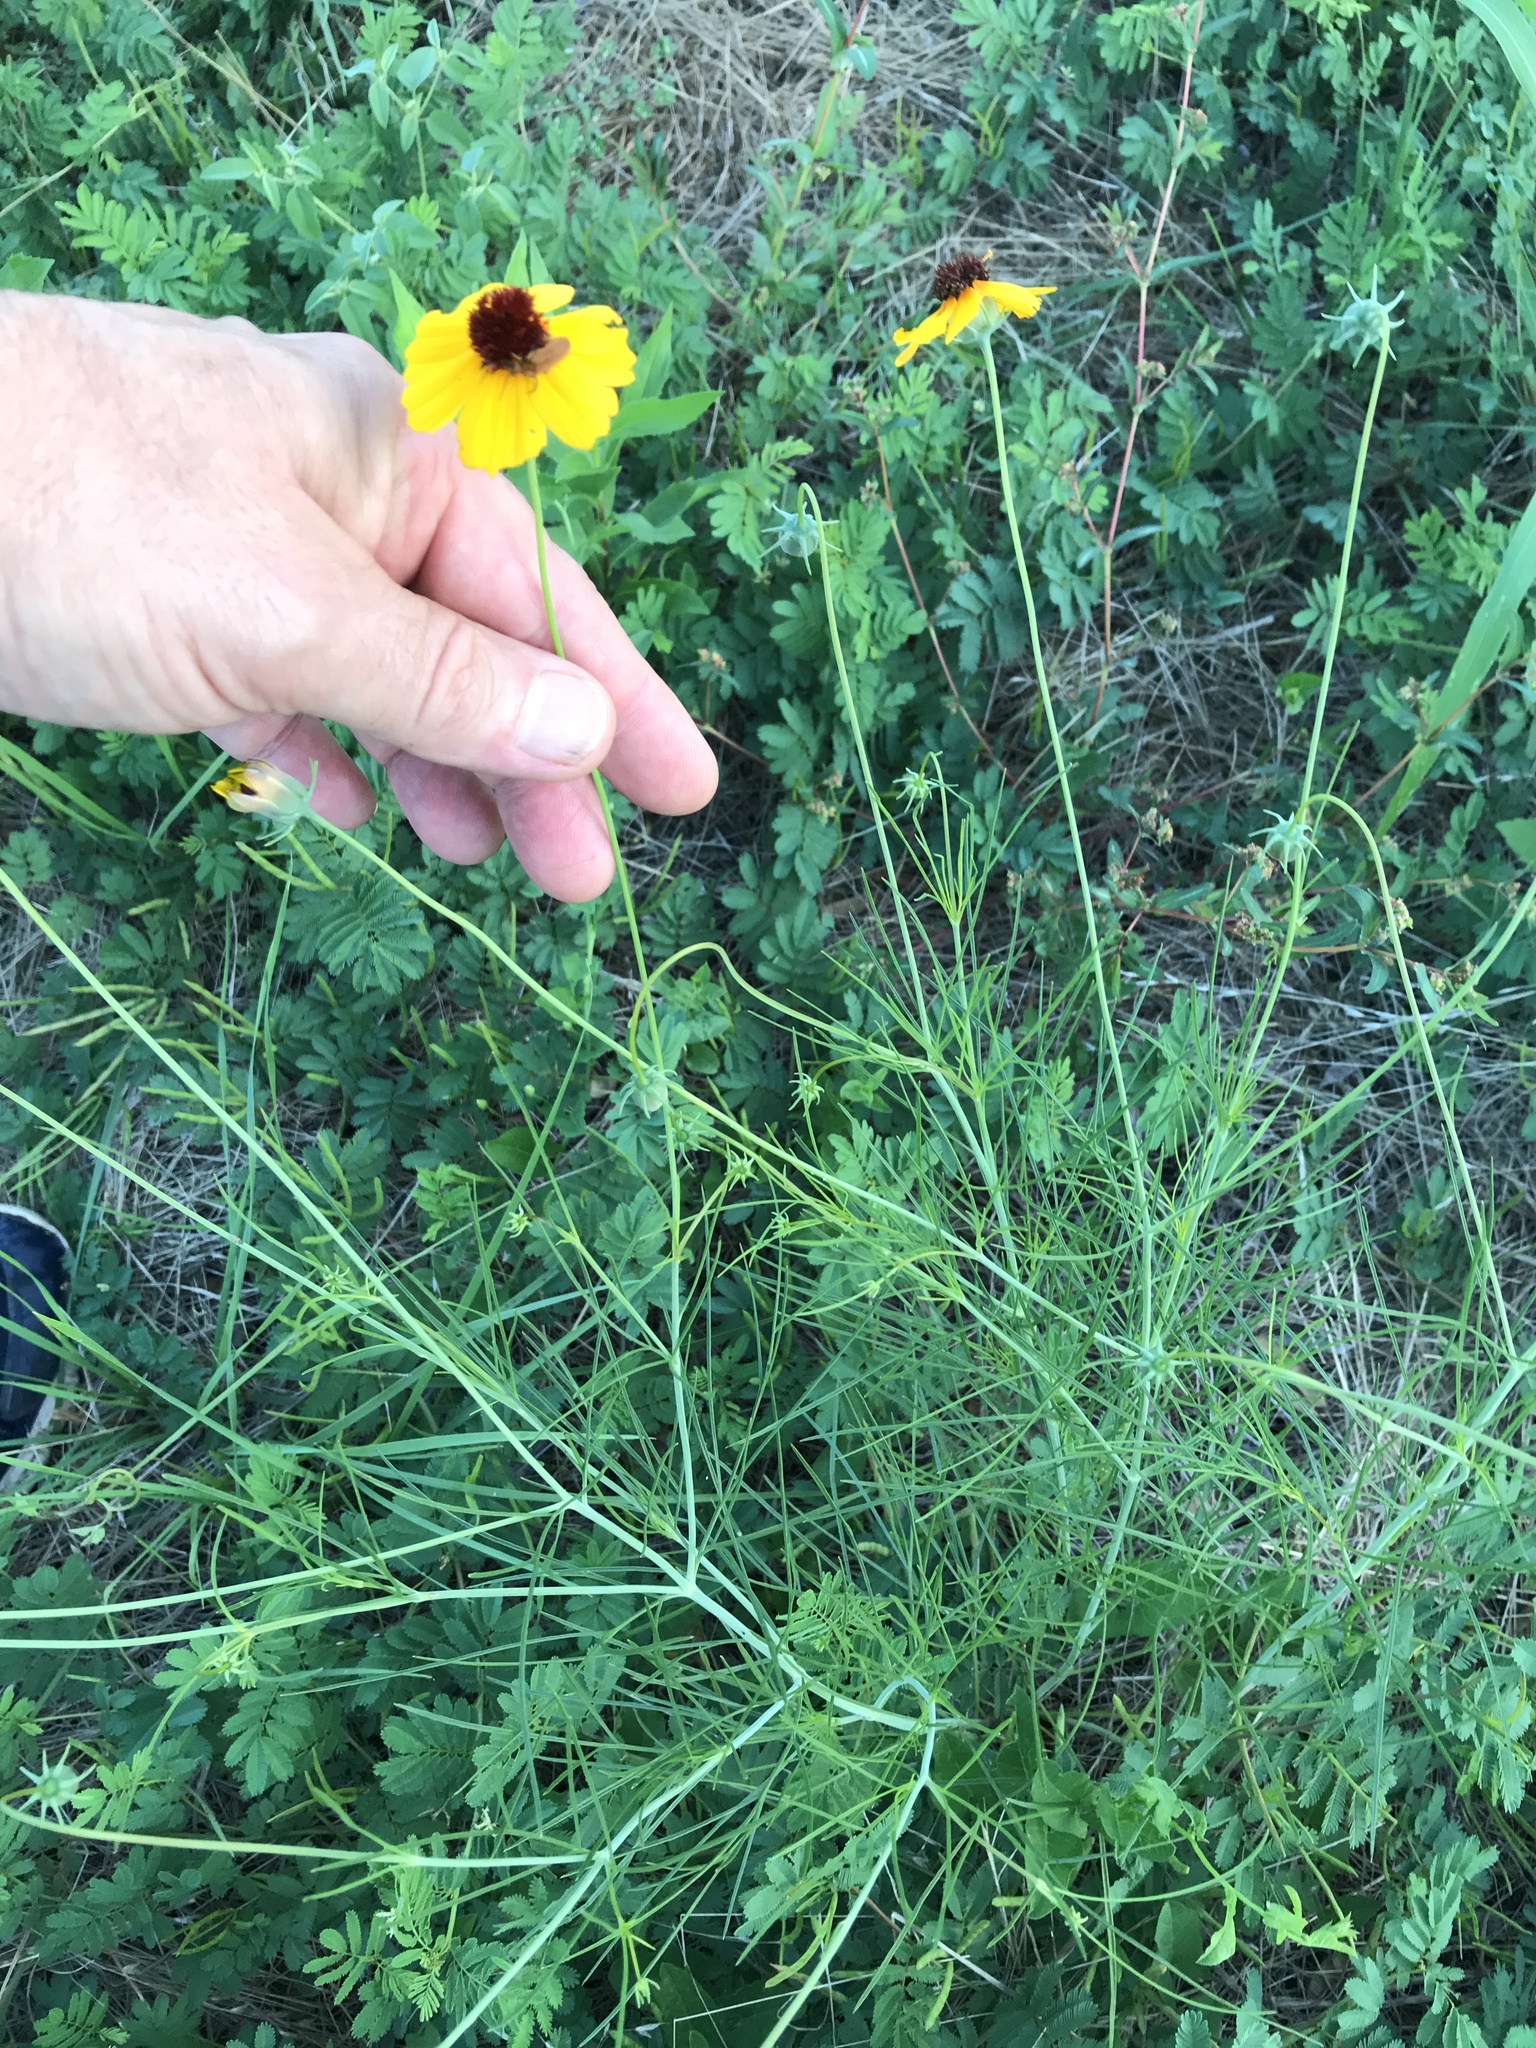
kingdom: Plantae
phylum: Tracheophyta
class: Magnoliopsida
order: Asterales
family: Asteraceae
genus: Thelesperma
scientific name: Thelesperma filifolium
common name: Stiff greenthread
